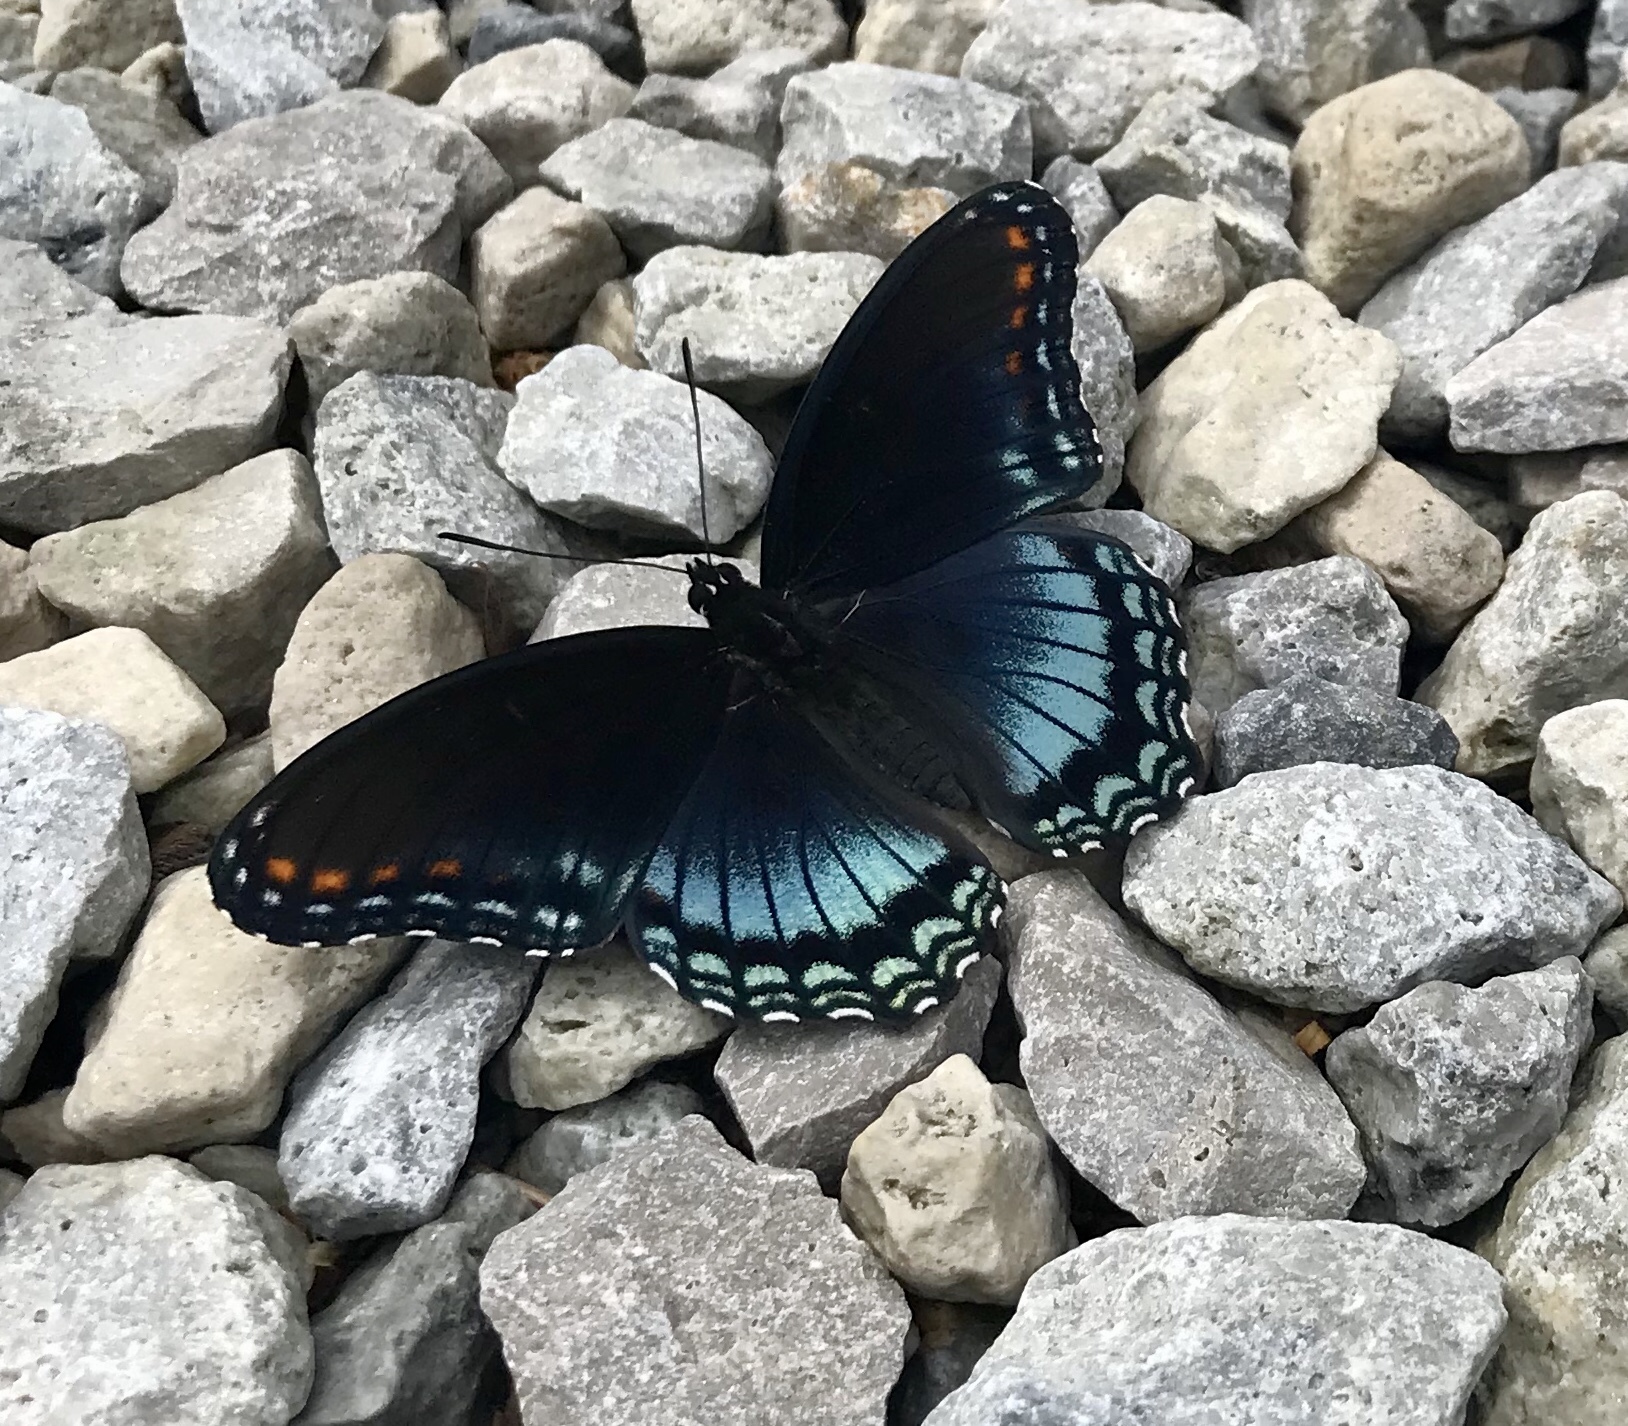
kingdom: Animalia
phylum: Arthropoda
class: Insecta
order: Lepidoptera
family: Nymphalidae
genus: Limenitis
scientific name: Limenitis astyanax
